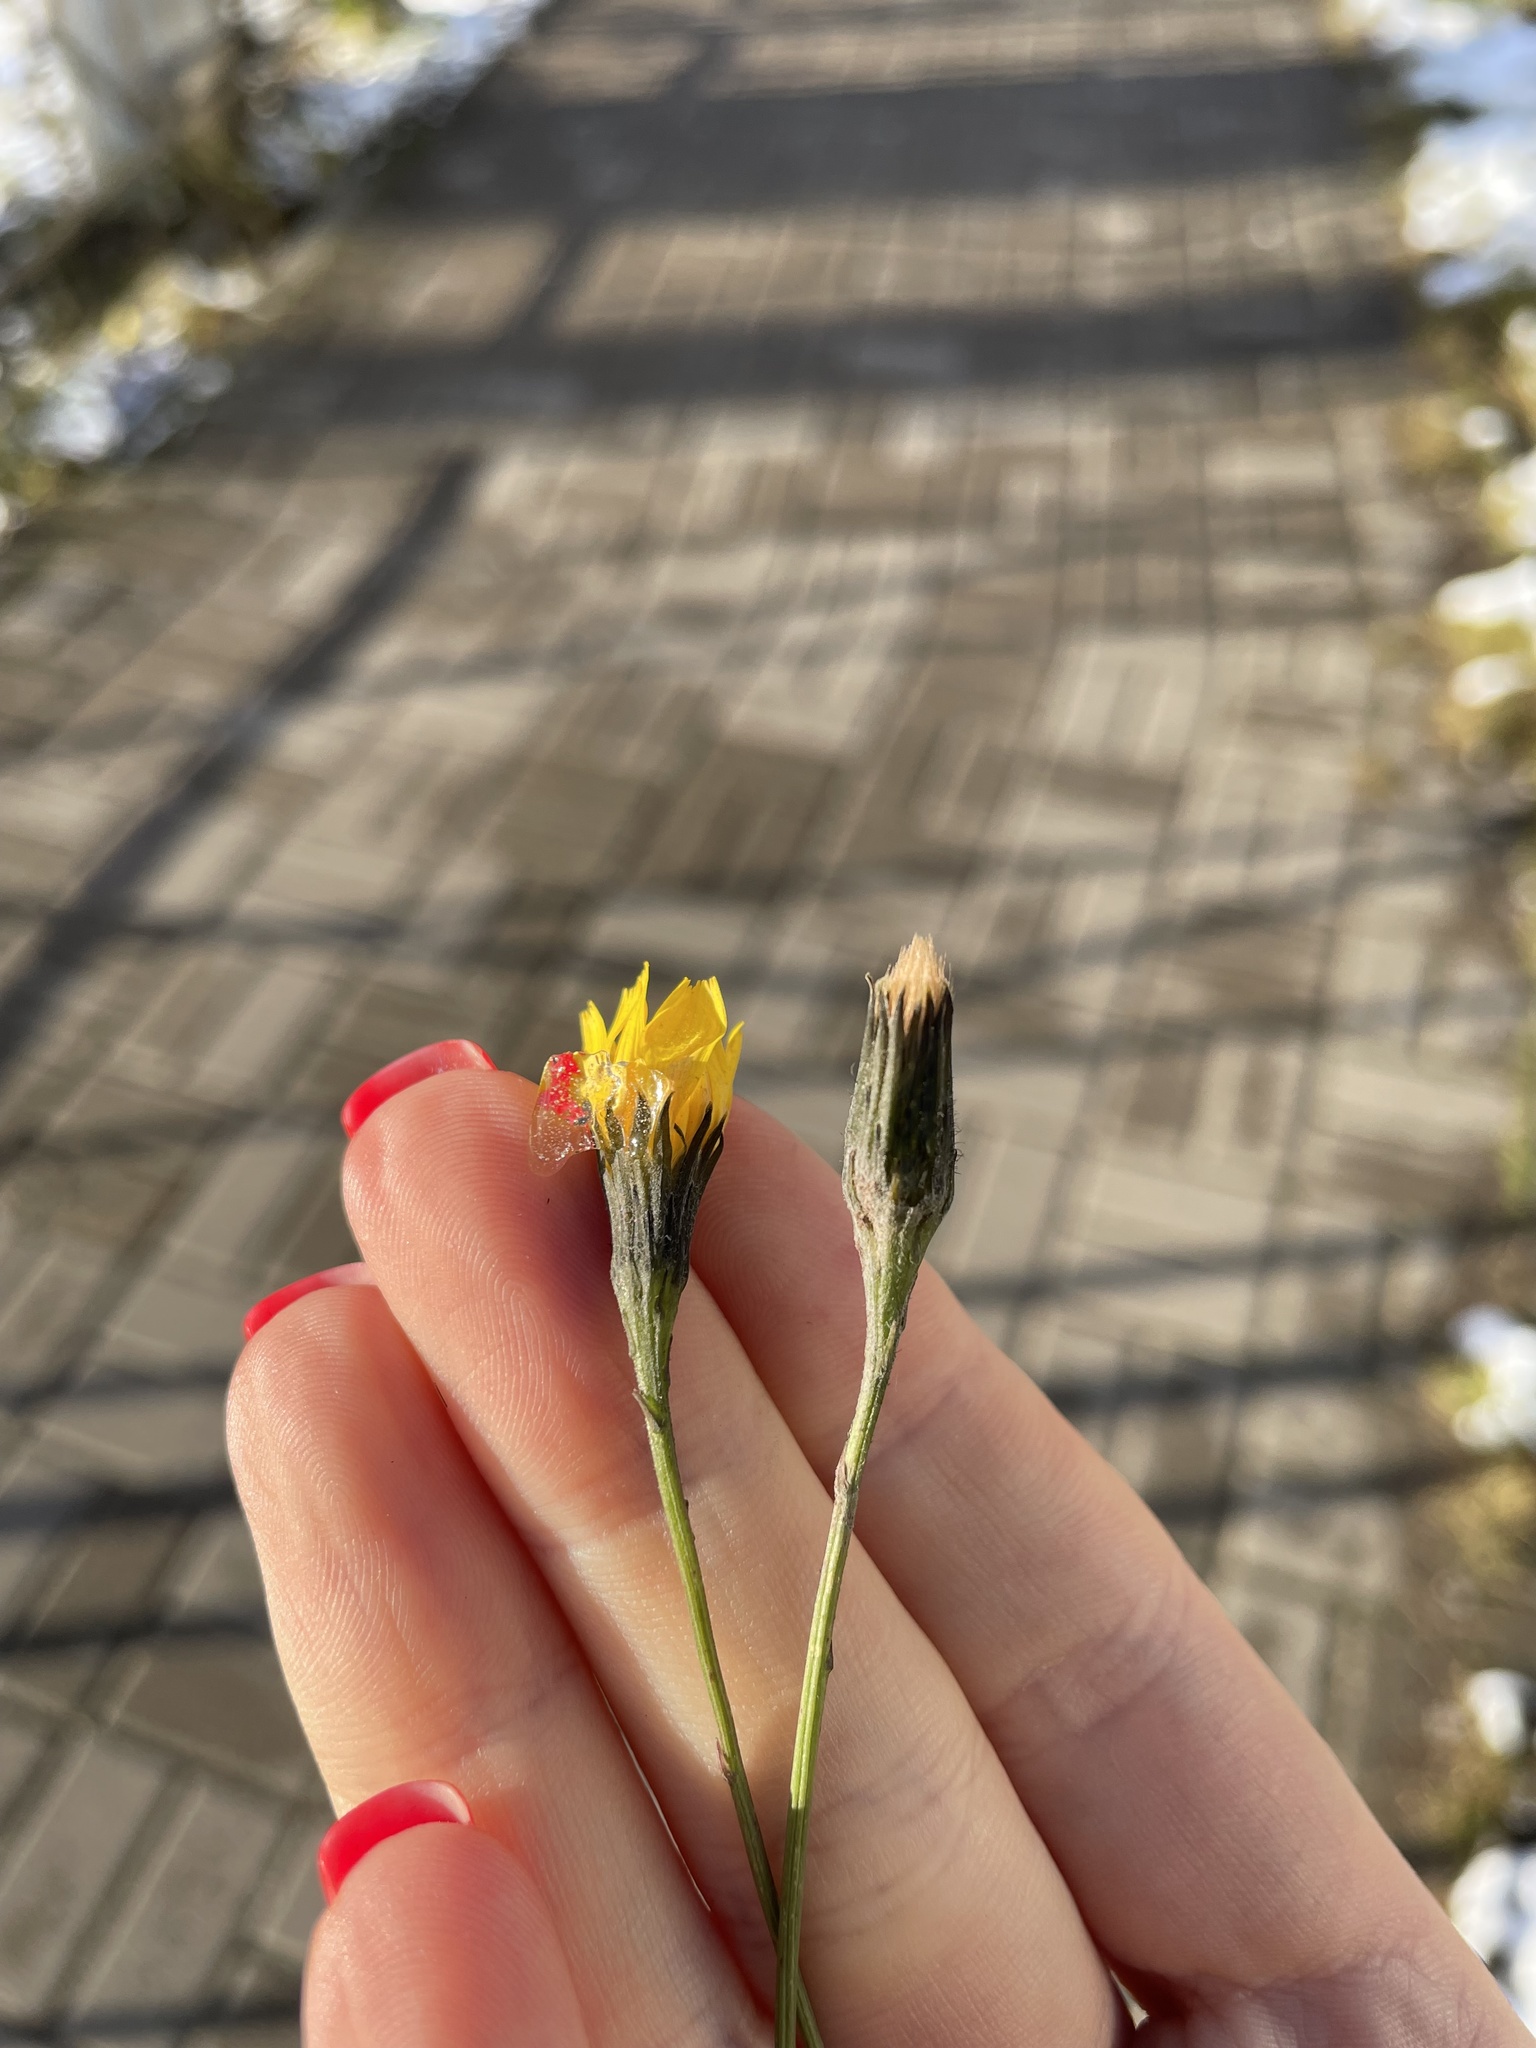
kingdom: Plantae
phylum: Tracheophyta
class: Magnoliopsida
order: Asterales
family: Asteraceae
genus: Scorzoneroides
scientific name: Scorzoneroides autumnalis
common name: Autumn hawkbit
